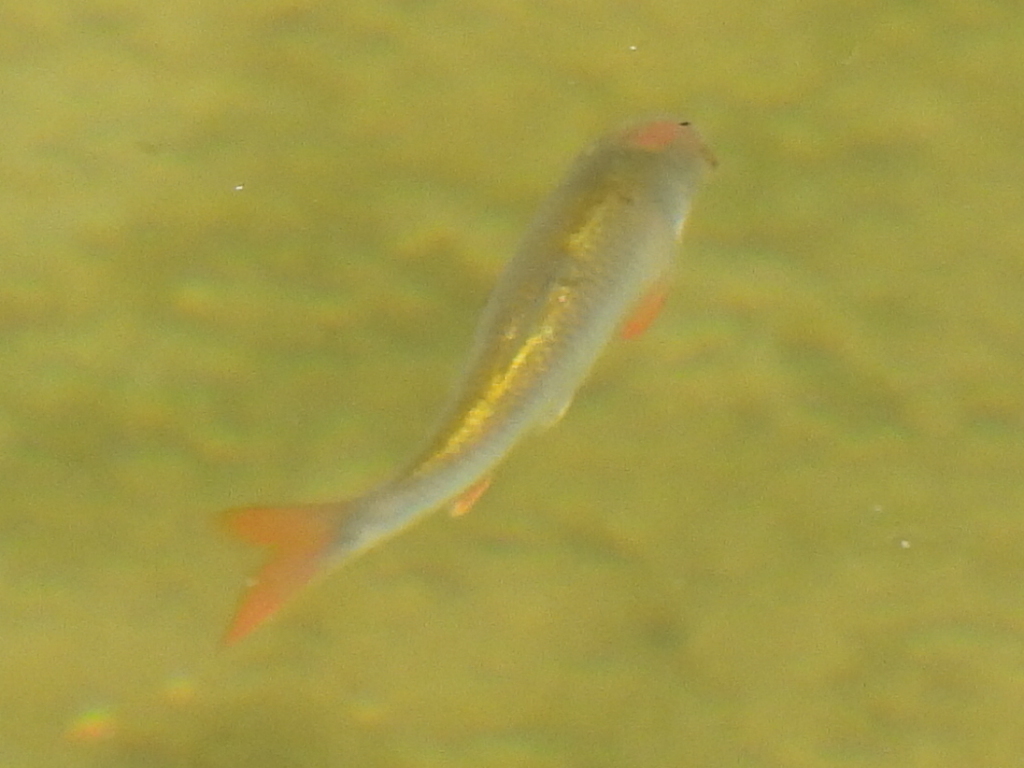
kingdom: Animalia
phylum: Chordata
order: Cypriniformes
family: Cyprinidae
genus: Cyprinella
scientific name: Cyprinella lutrensis
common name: Red shiner
